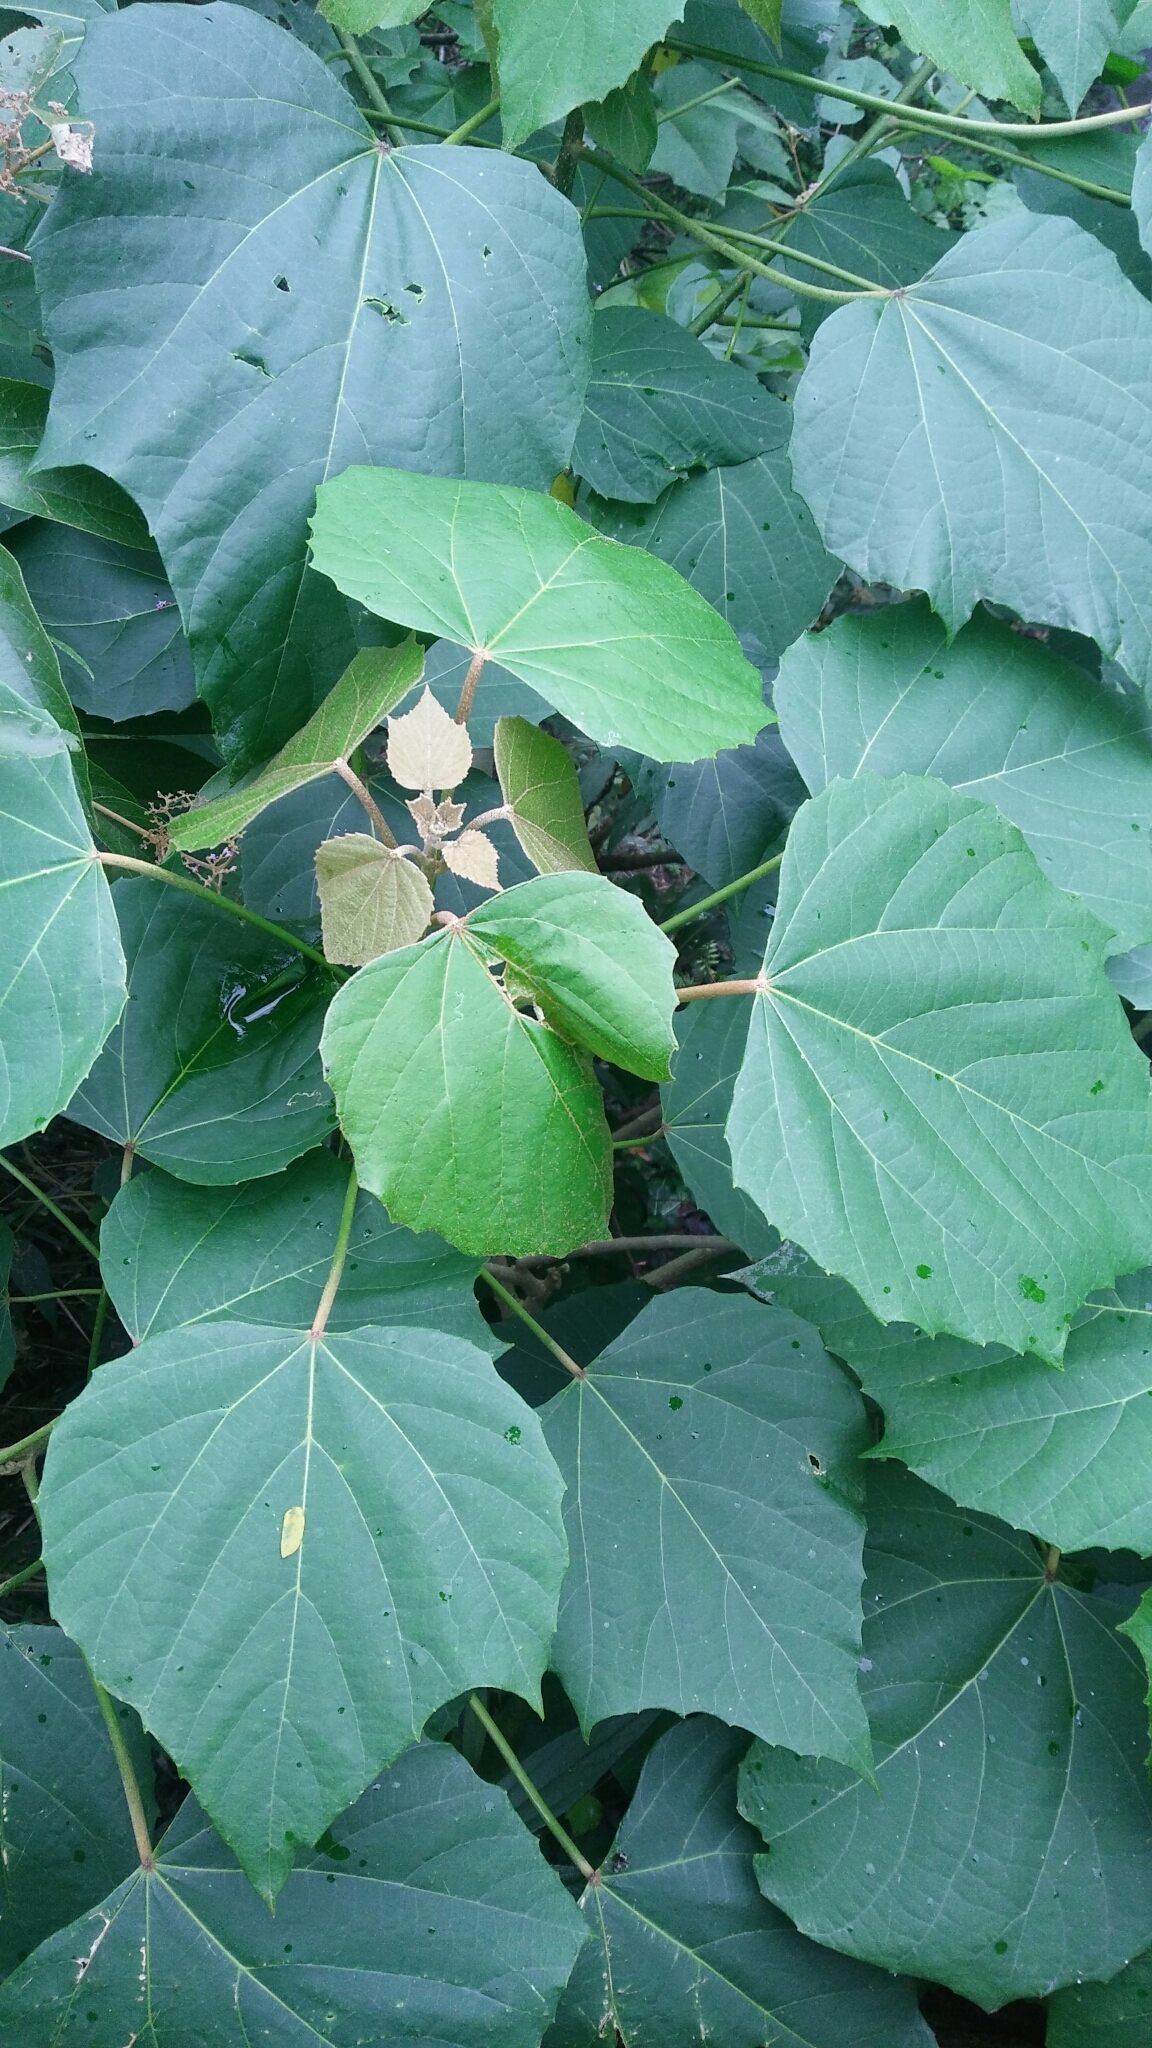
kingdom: Plantae
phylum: Tracheophyta
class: Magnoliopsida
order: Malpighiales
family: Euphorbiaceae
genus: Melanolepis
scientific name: Melanolepis multiglandulosa
